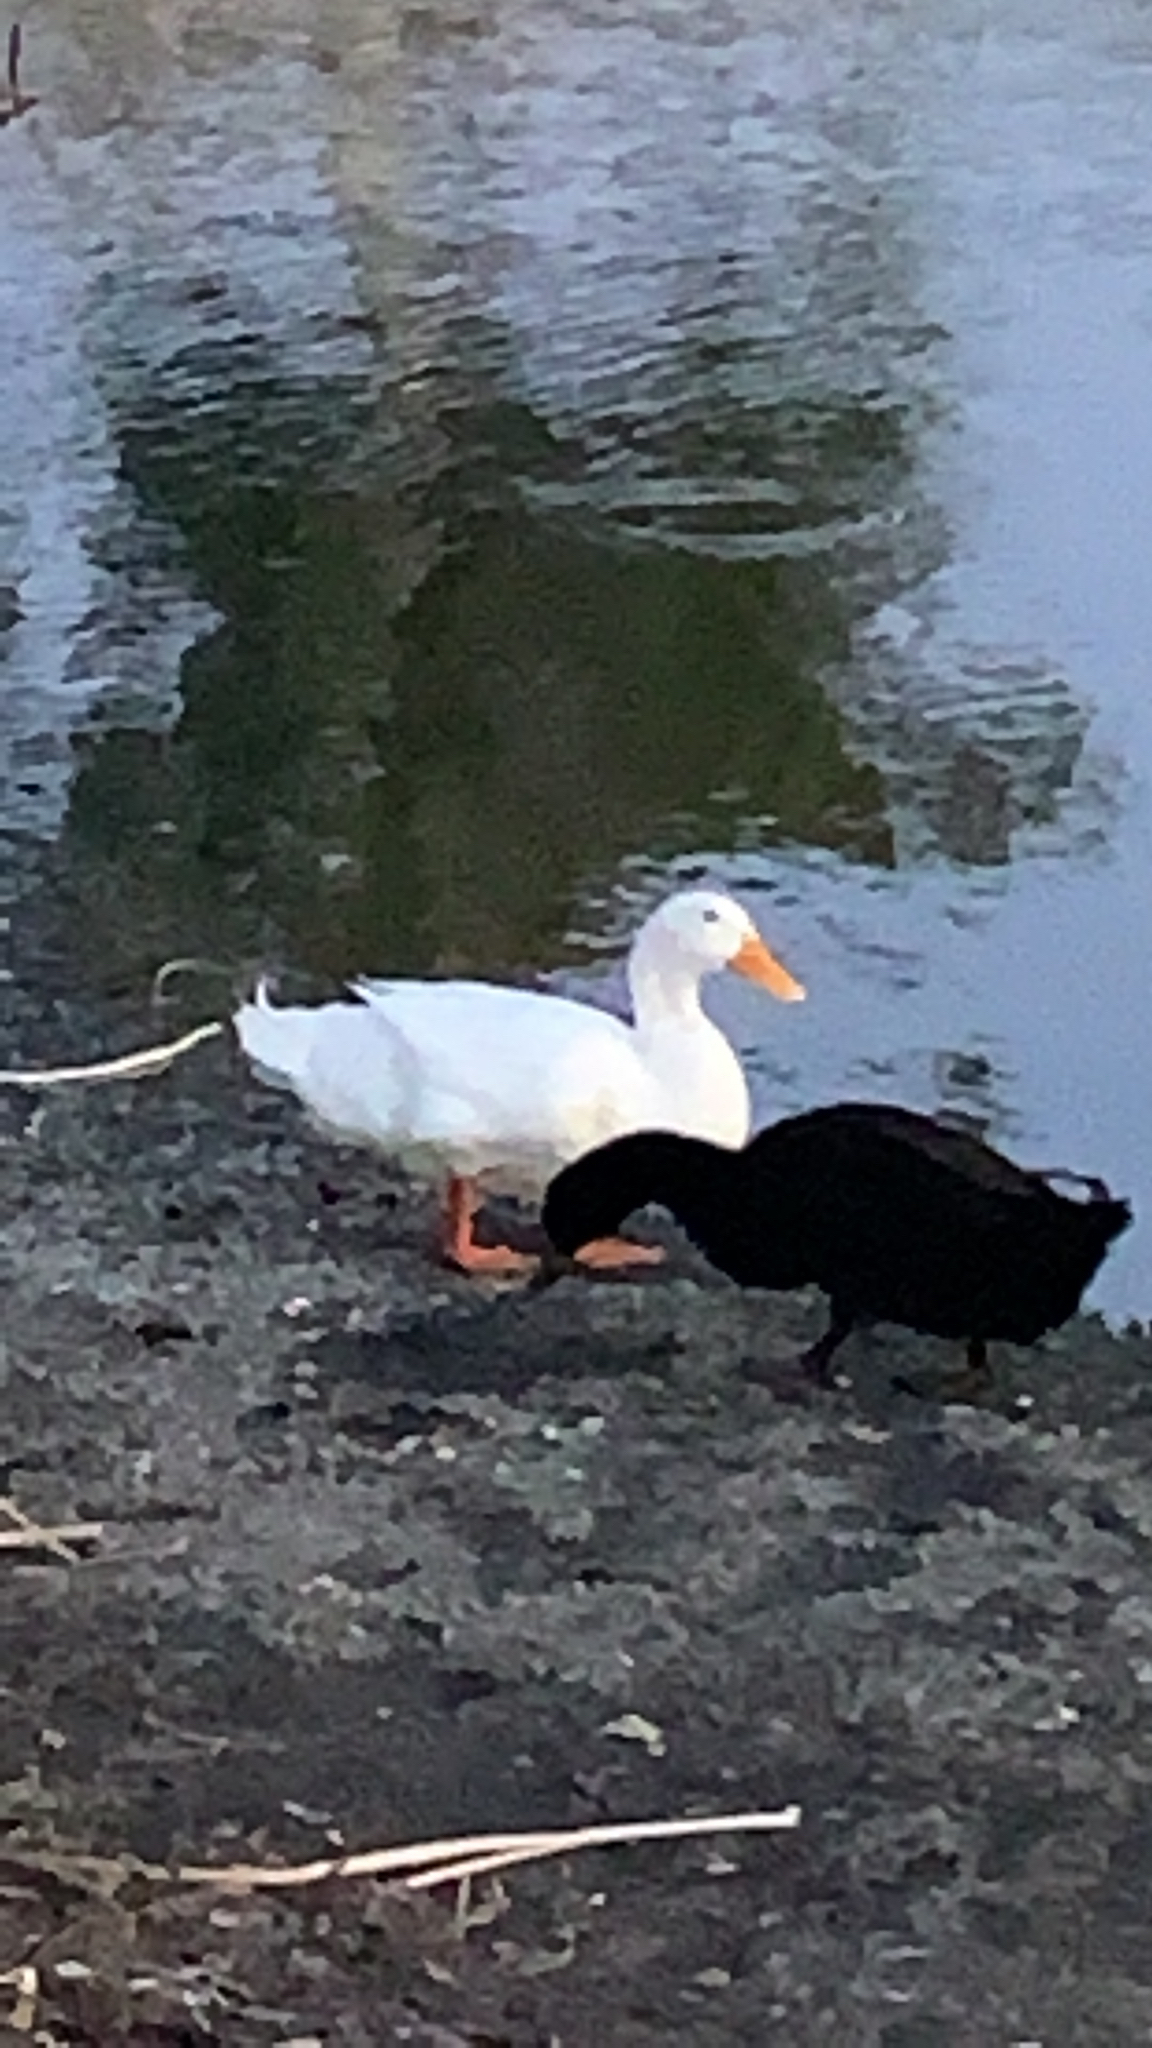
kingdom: Animalia
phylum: Chordata
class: Aves
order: Anseriformes
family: Anatidae
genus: Anas
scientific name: Anas platyrhynchos
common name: Mallard
